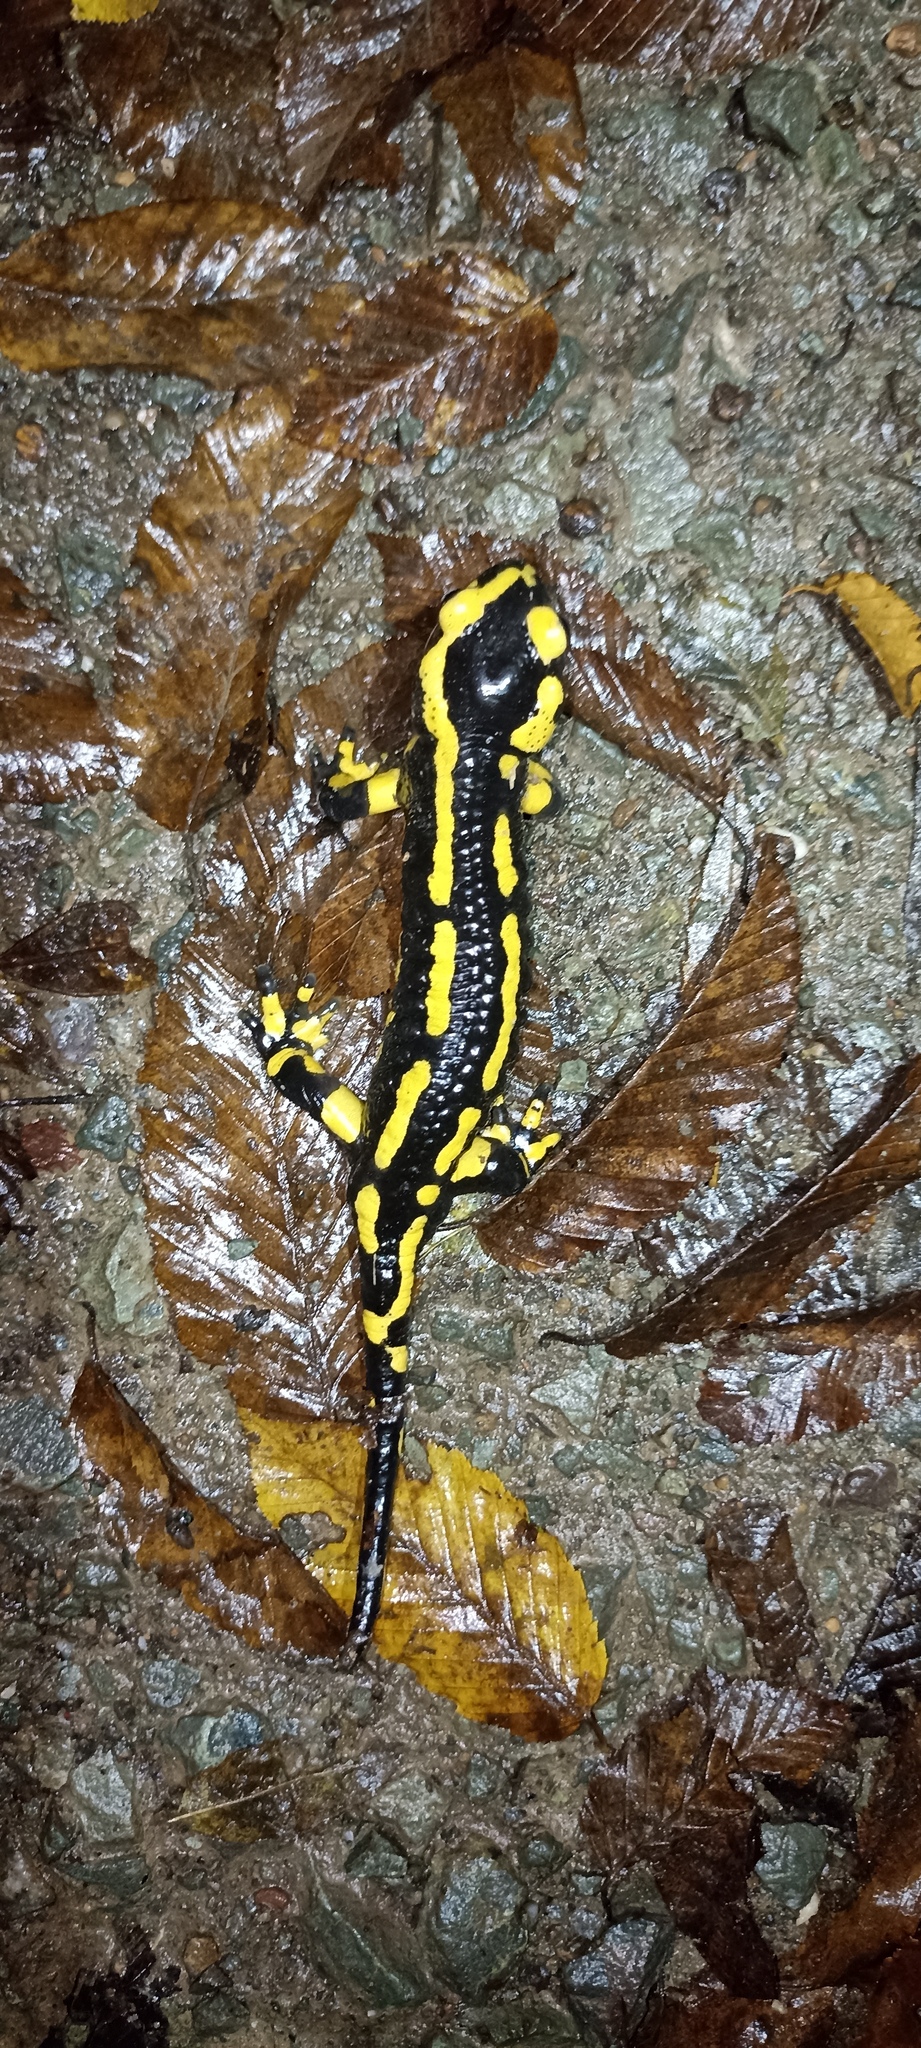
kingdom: Animalia
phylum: Chordata
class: Amphibia
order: Caudata
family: Salamandridae
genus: Salamandra
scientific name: Salamandra salamandra
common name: Fire salamander
